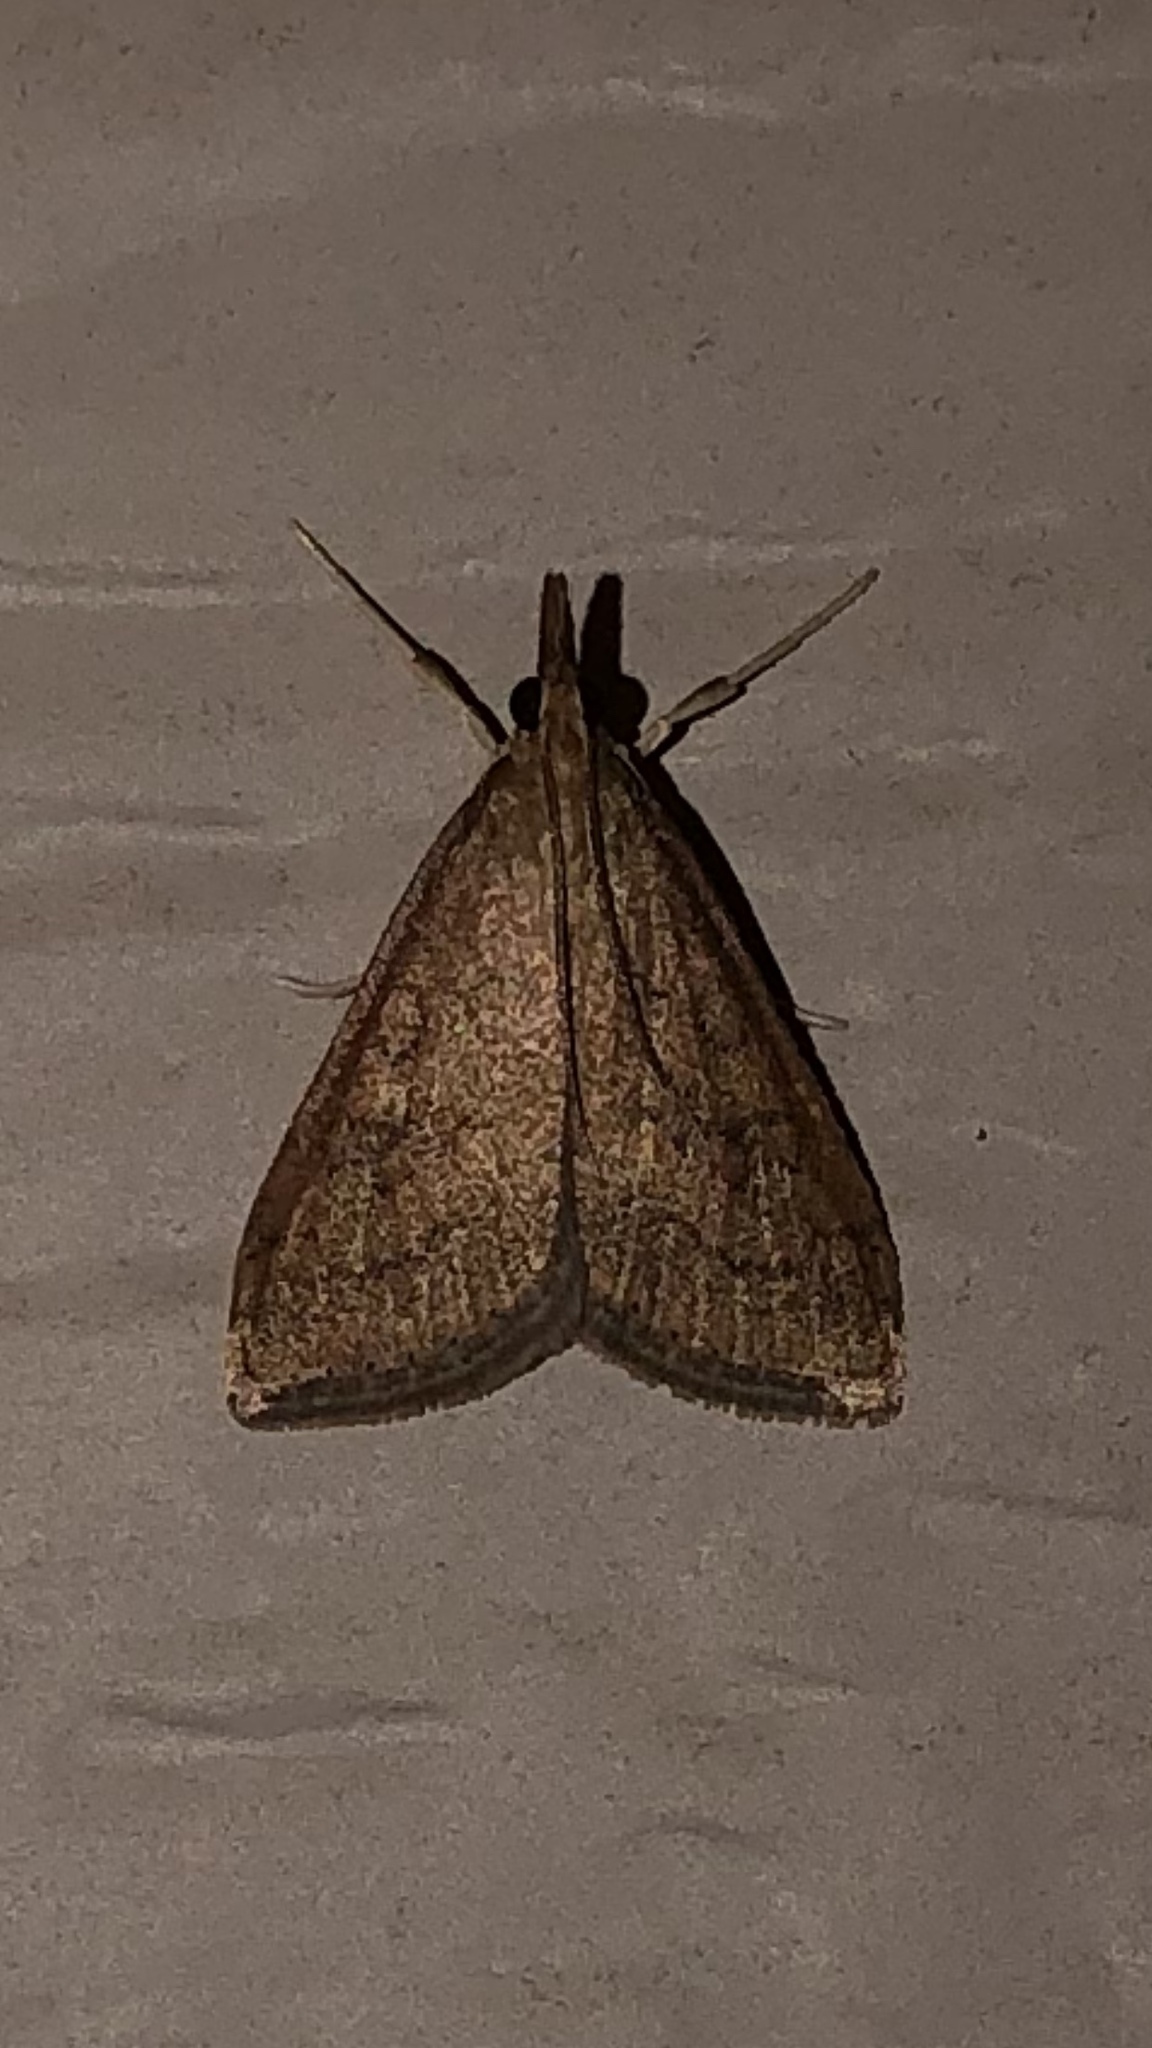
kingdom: Animalia
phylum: Arthropoda
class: Insecta
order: Lepidoptera
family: Crambidae
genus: Udea
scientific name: Udea rubigalis
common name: Celery leaftier moth
